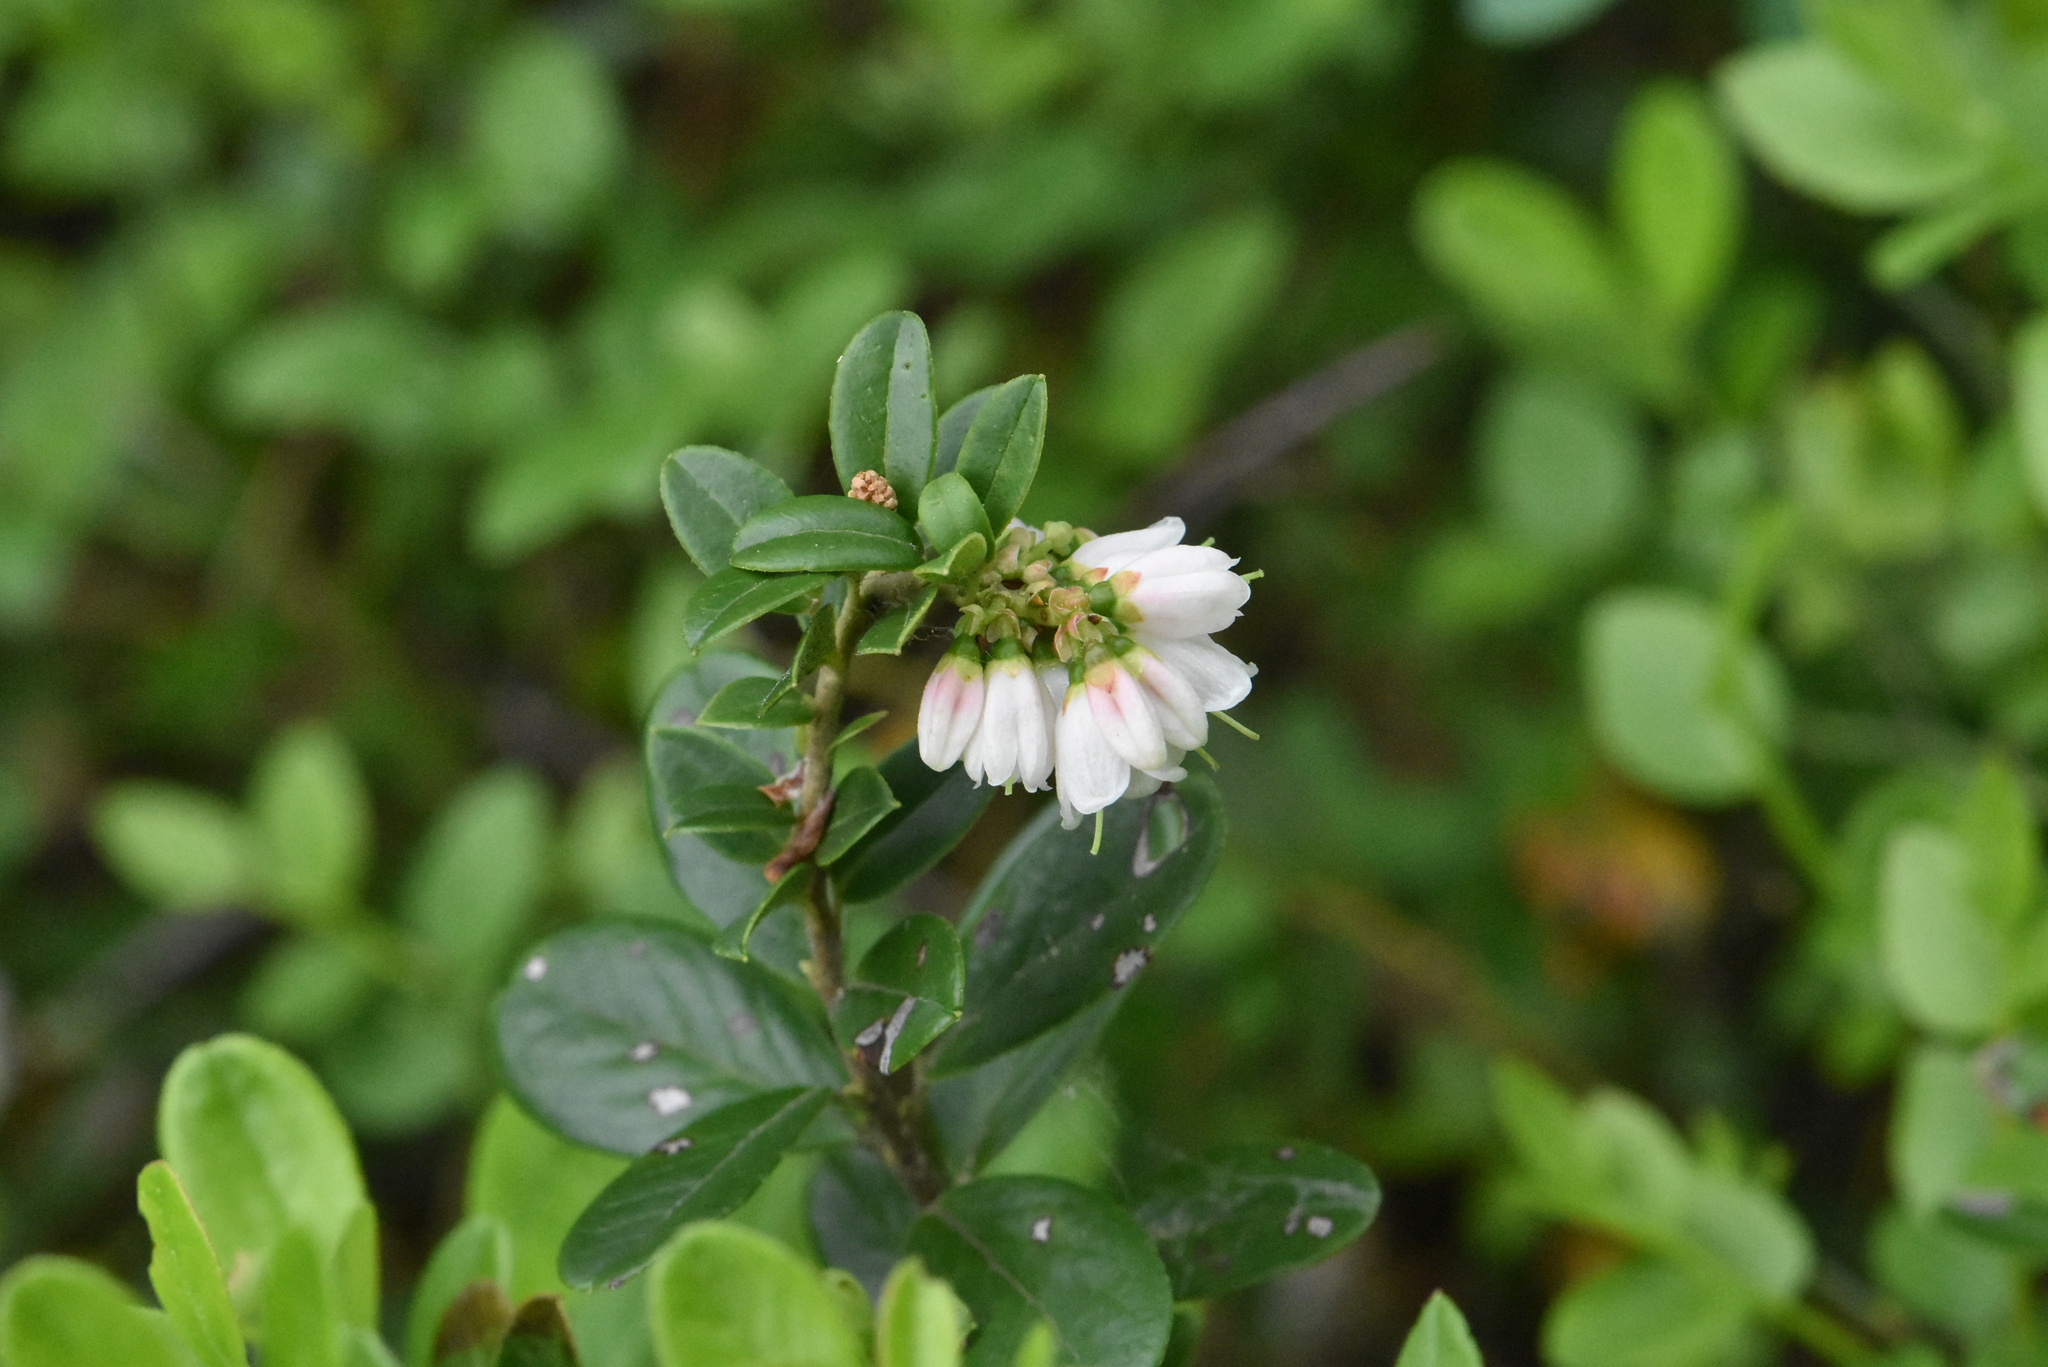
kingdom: Plantae
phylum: Tracheophyta
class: Magnoliopsida
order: Ericales
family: Ericaceae
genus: Vaccinium
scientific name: Vaccinium vitis-idaea
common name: Cowberry
